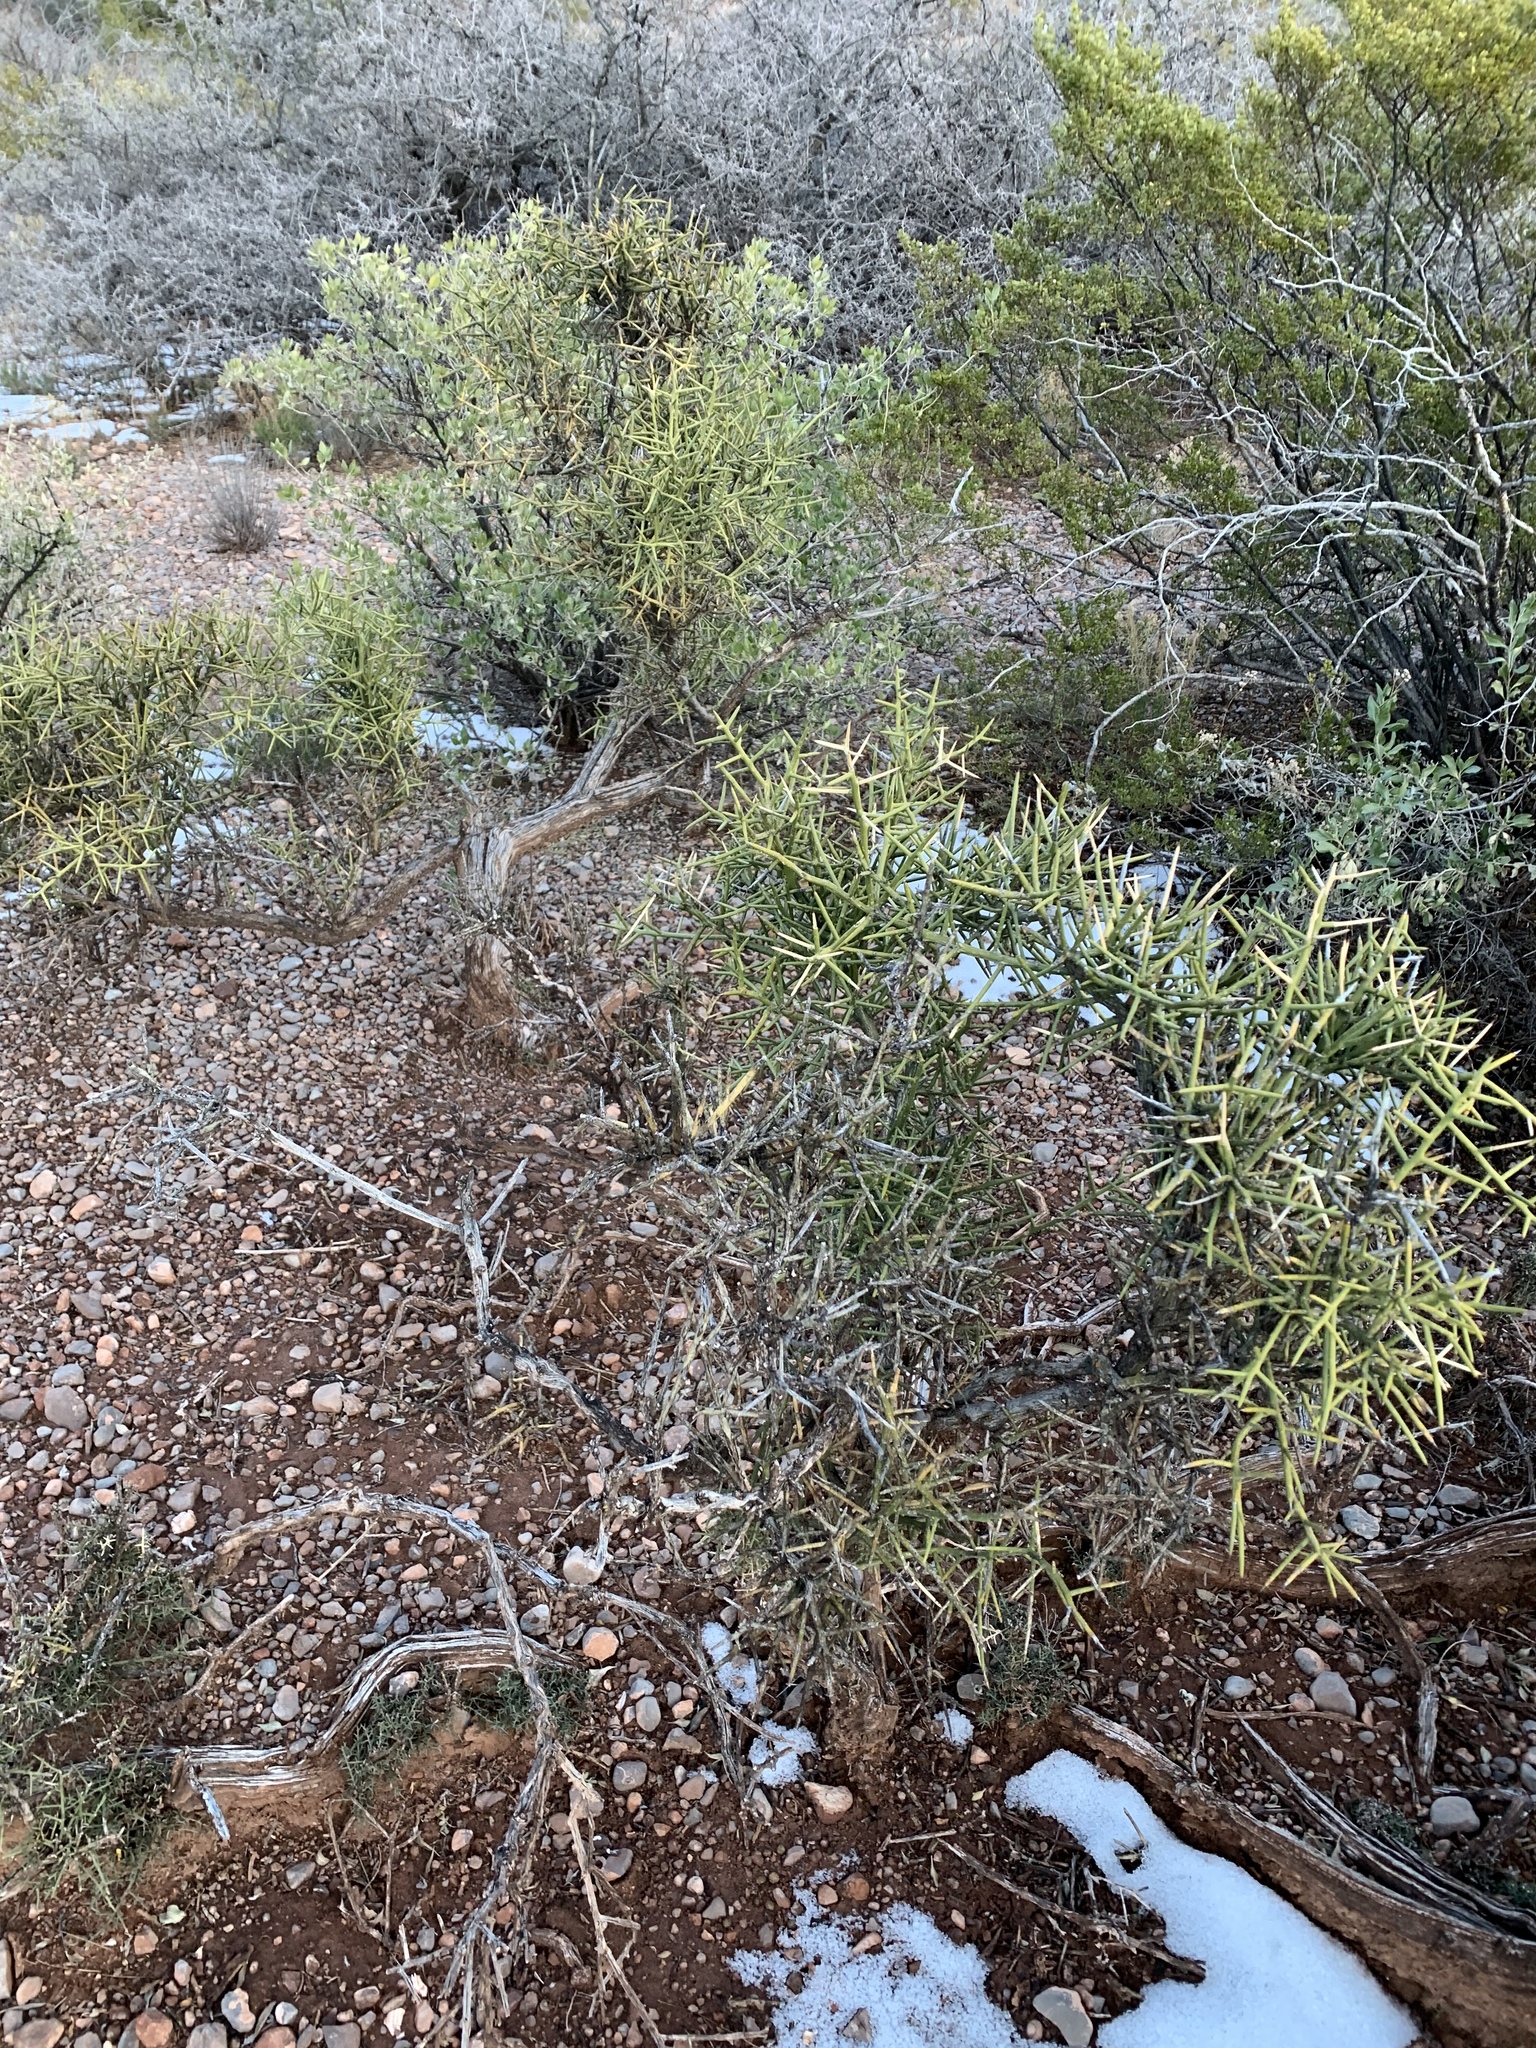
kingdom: Plantae
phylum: Tracheophyta
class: Magnoliopsida
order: Brassicales
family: Koeberliniaceae
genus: Koeberlinia
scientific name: Koeberlinia spinosa
